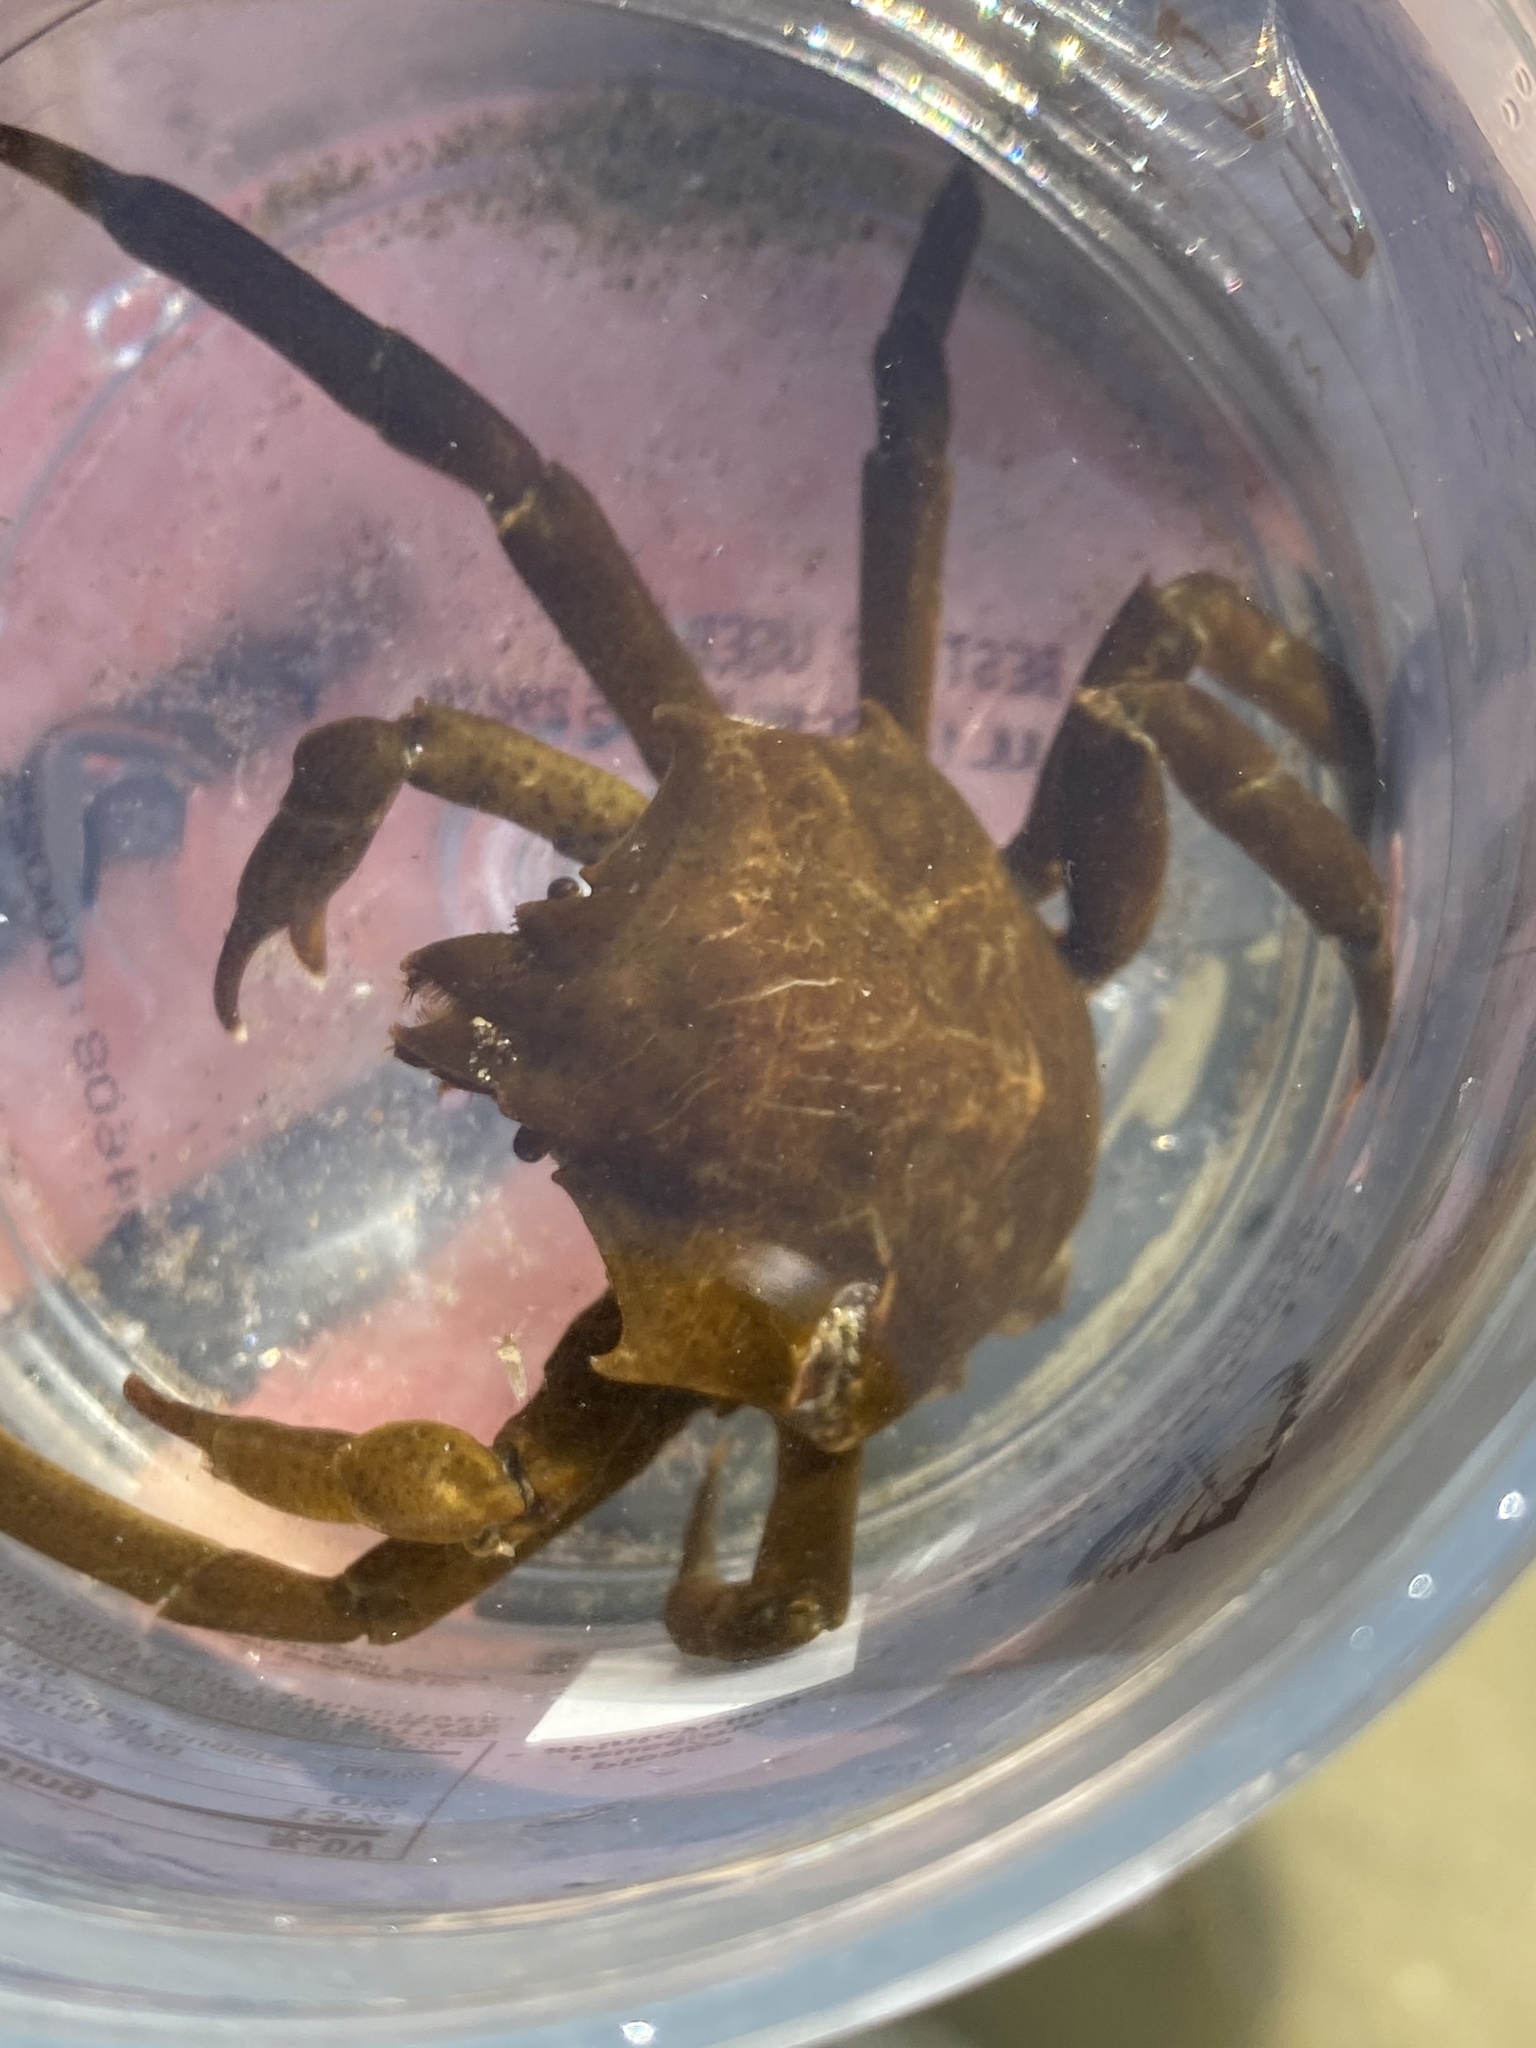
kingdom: Animalia
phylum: Arthropoda
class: Malacostraca
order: Decapoda
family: Epialtidae
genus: Pugettia
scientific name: Pugettia producta
